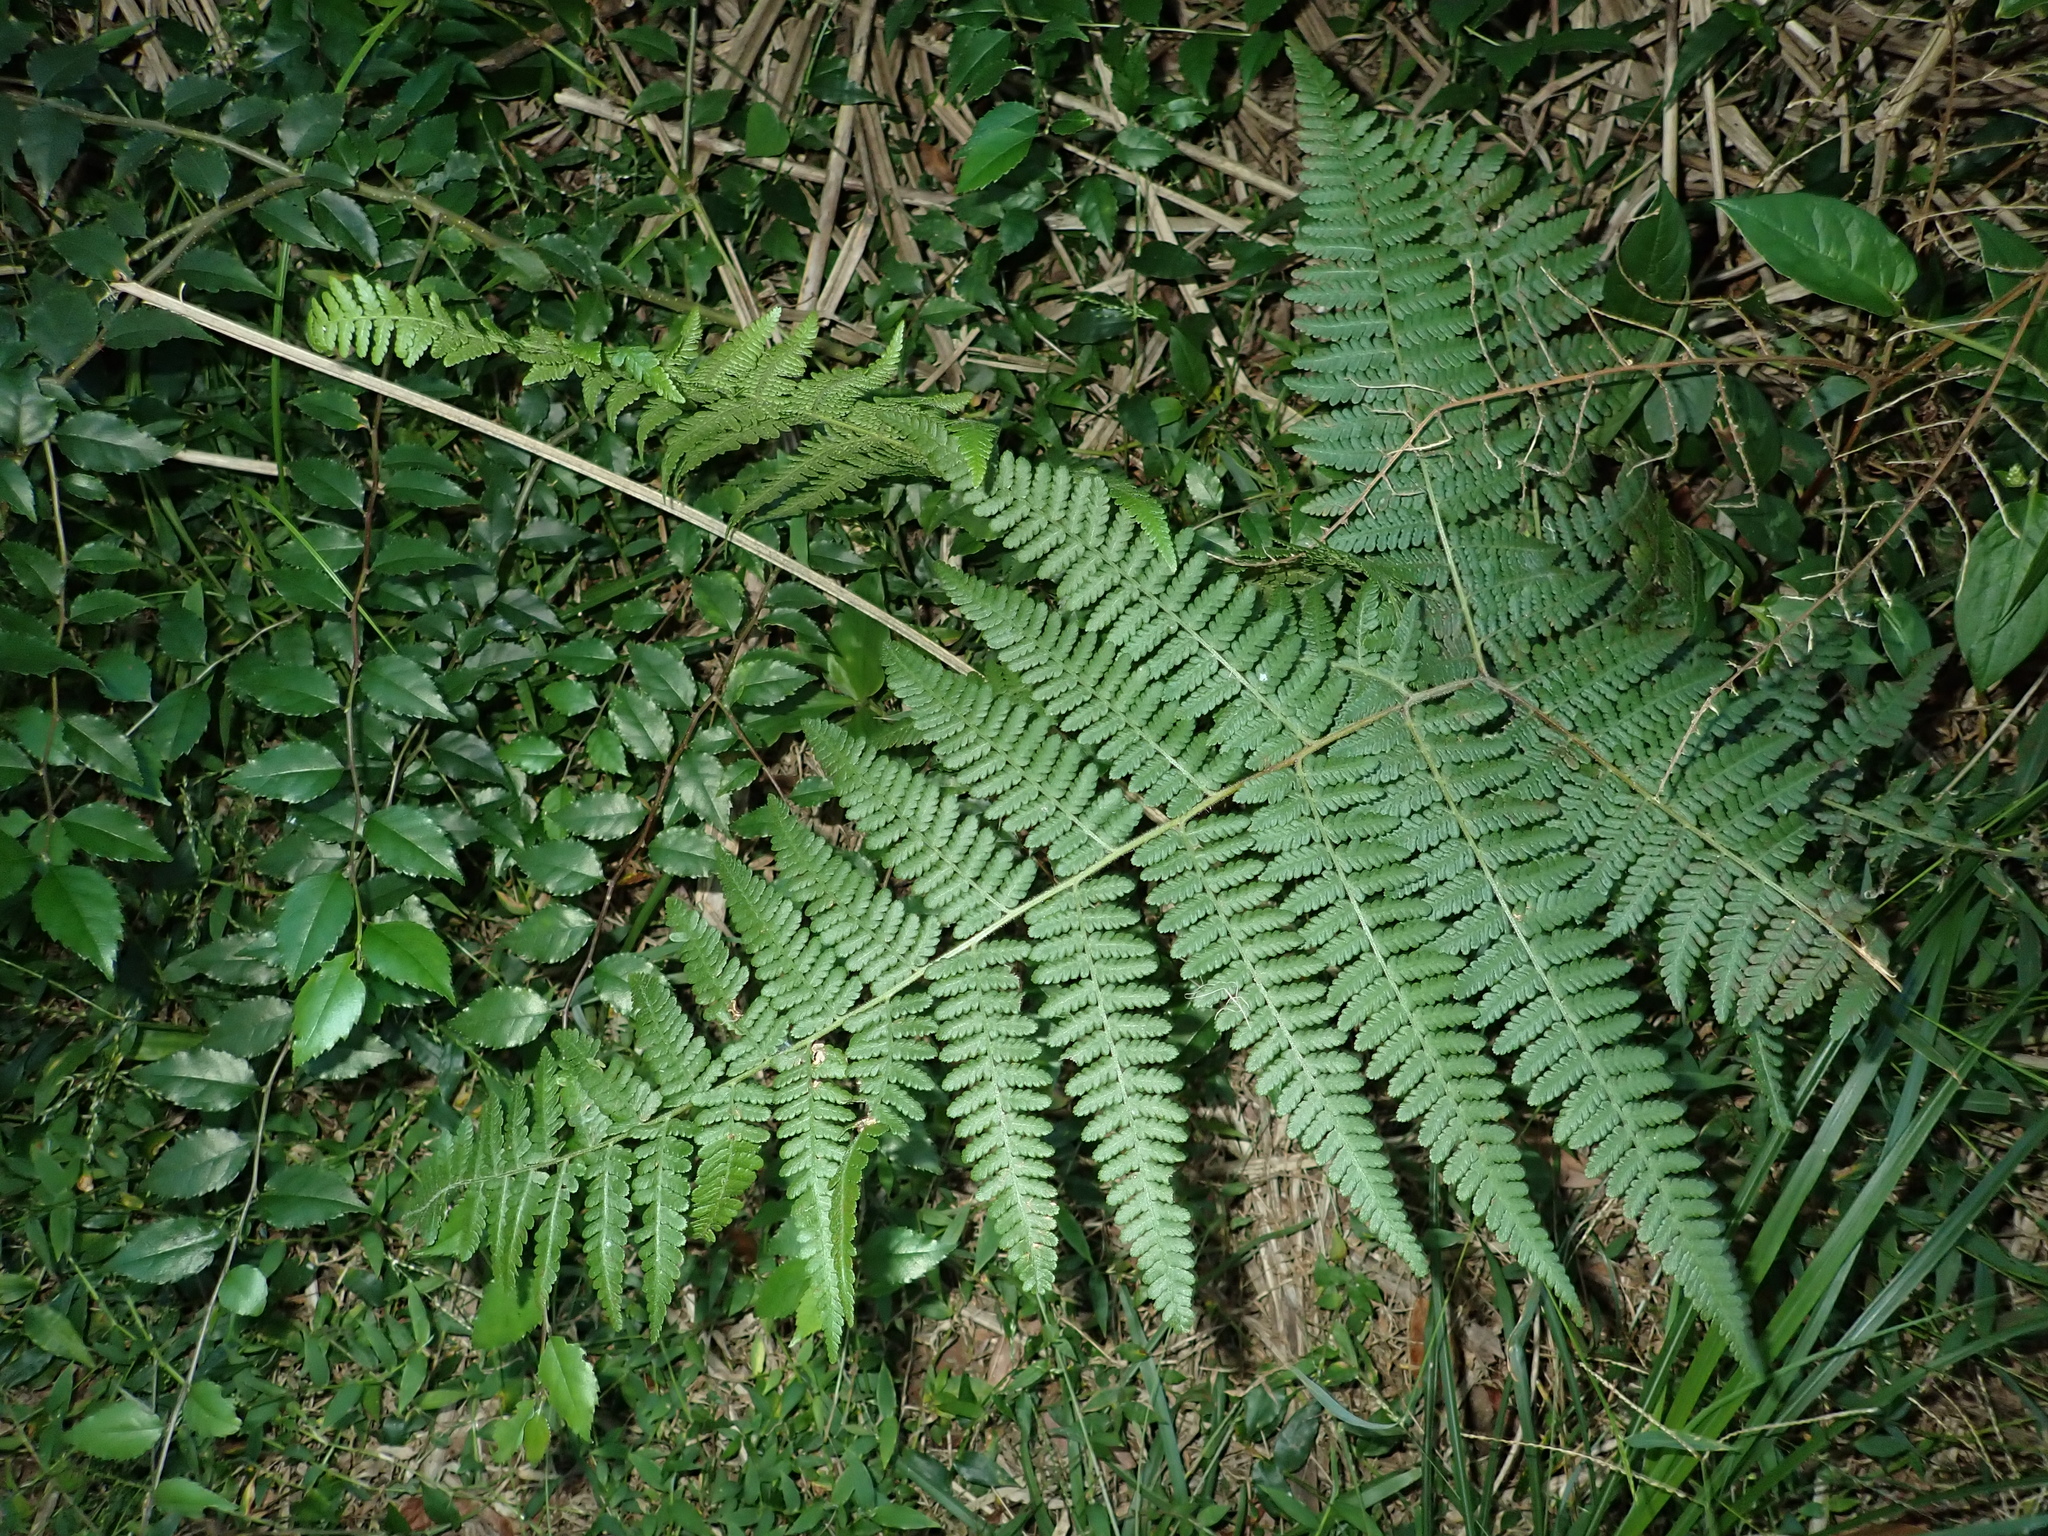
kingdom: Plantae
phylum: Tracheophyta
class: Polypodiopsida
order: Polypodiales
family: Dennstaedtiaceae
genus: Hypolepis
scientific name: Hypolepis punctata
